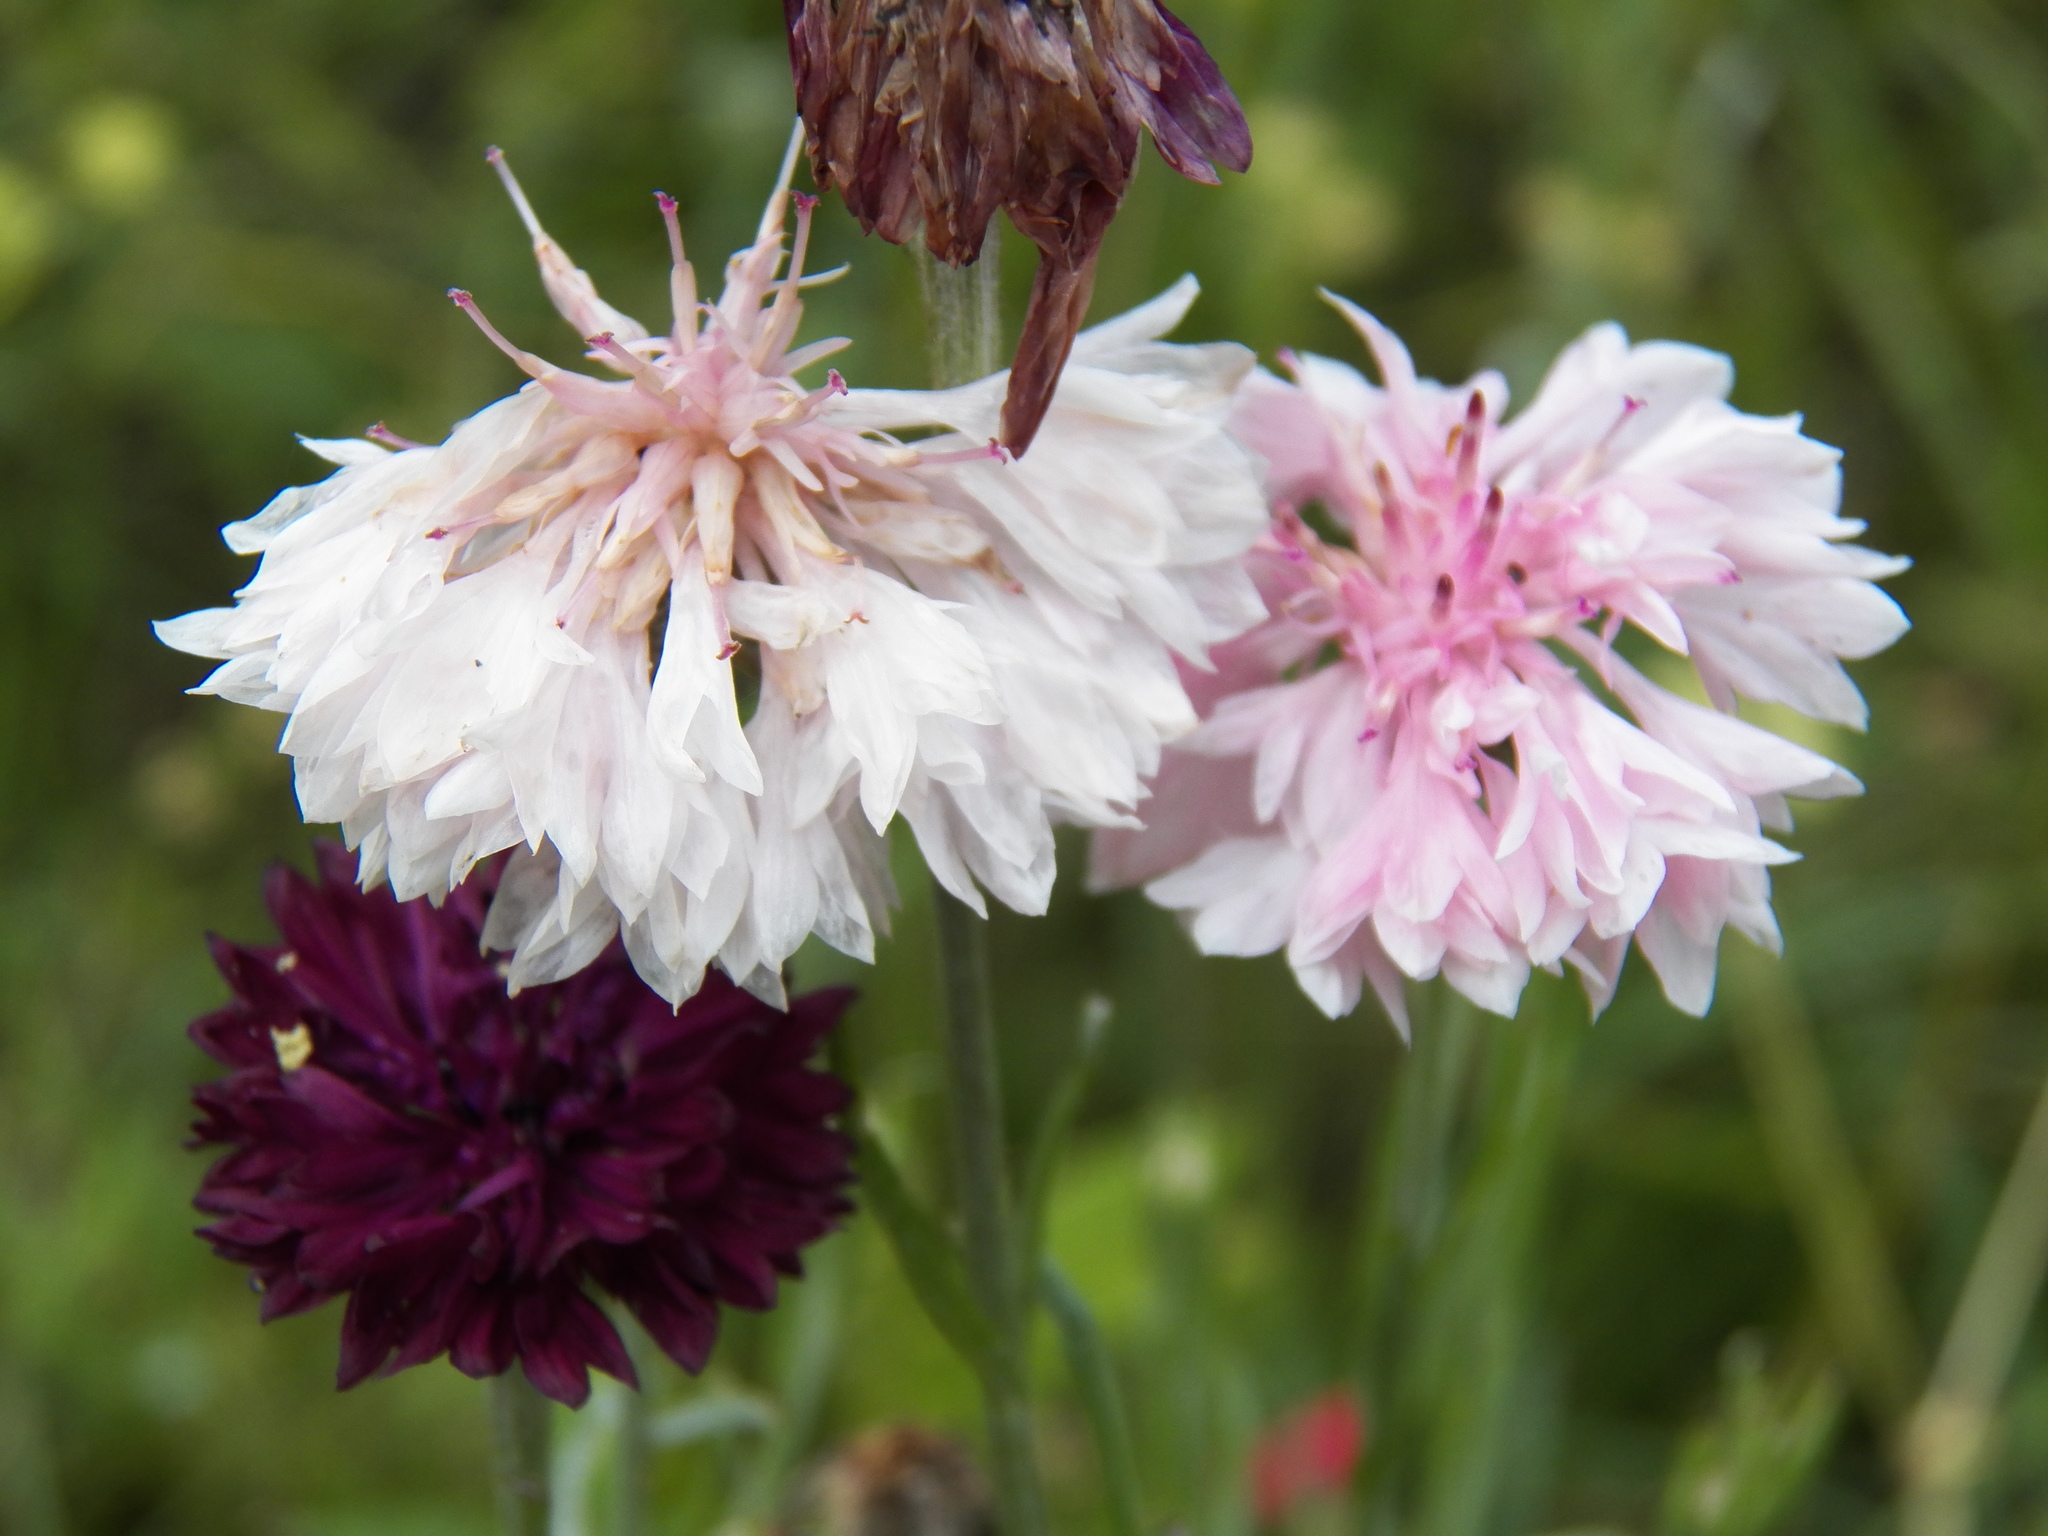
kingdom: Plantae
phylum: Tracheophyta
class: Magnoliopsida
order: Asterales
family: Asteraceae
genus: Centaurea
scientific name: Centaurea cyanus
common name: Cornflower
